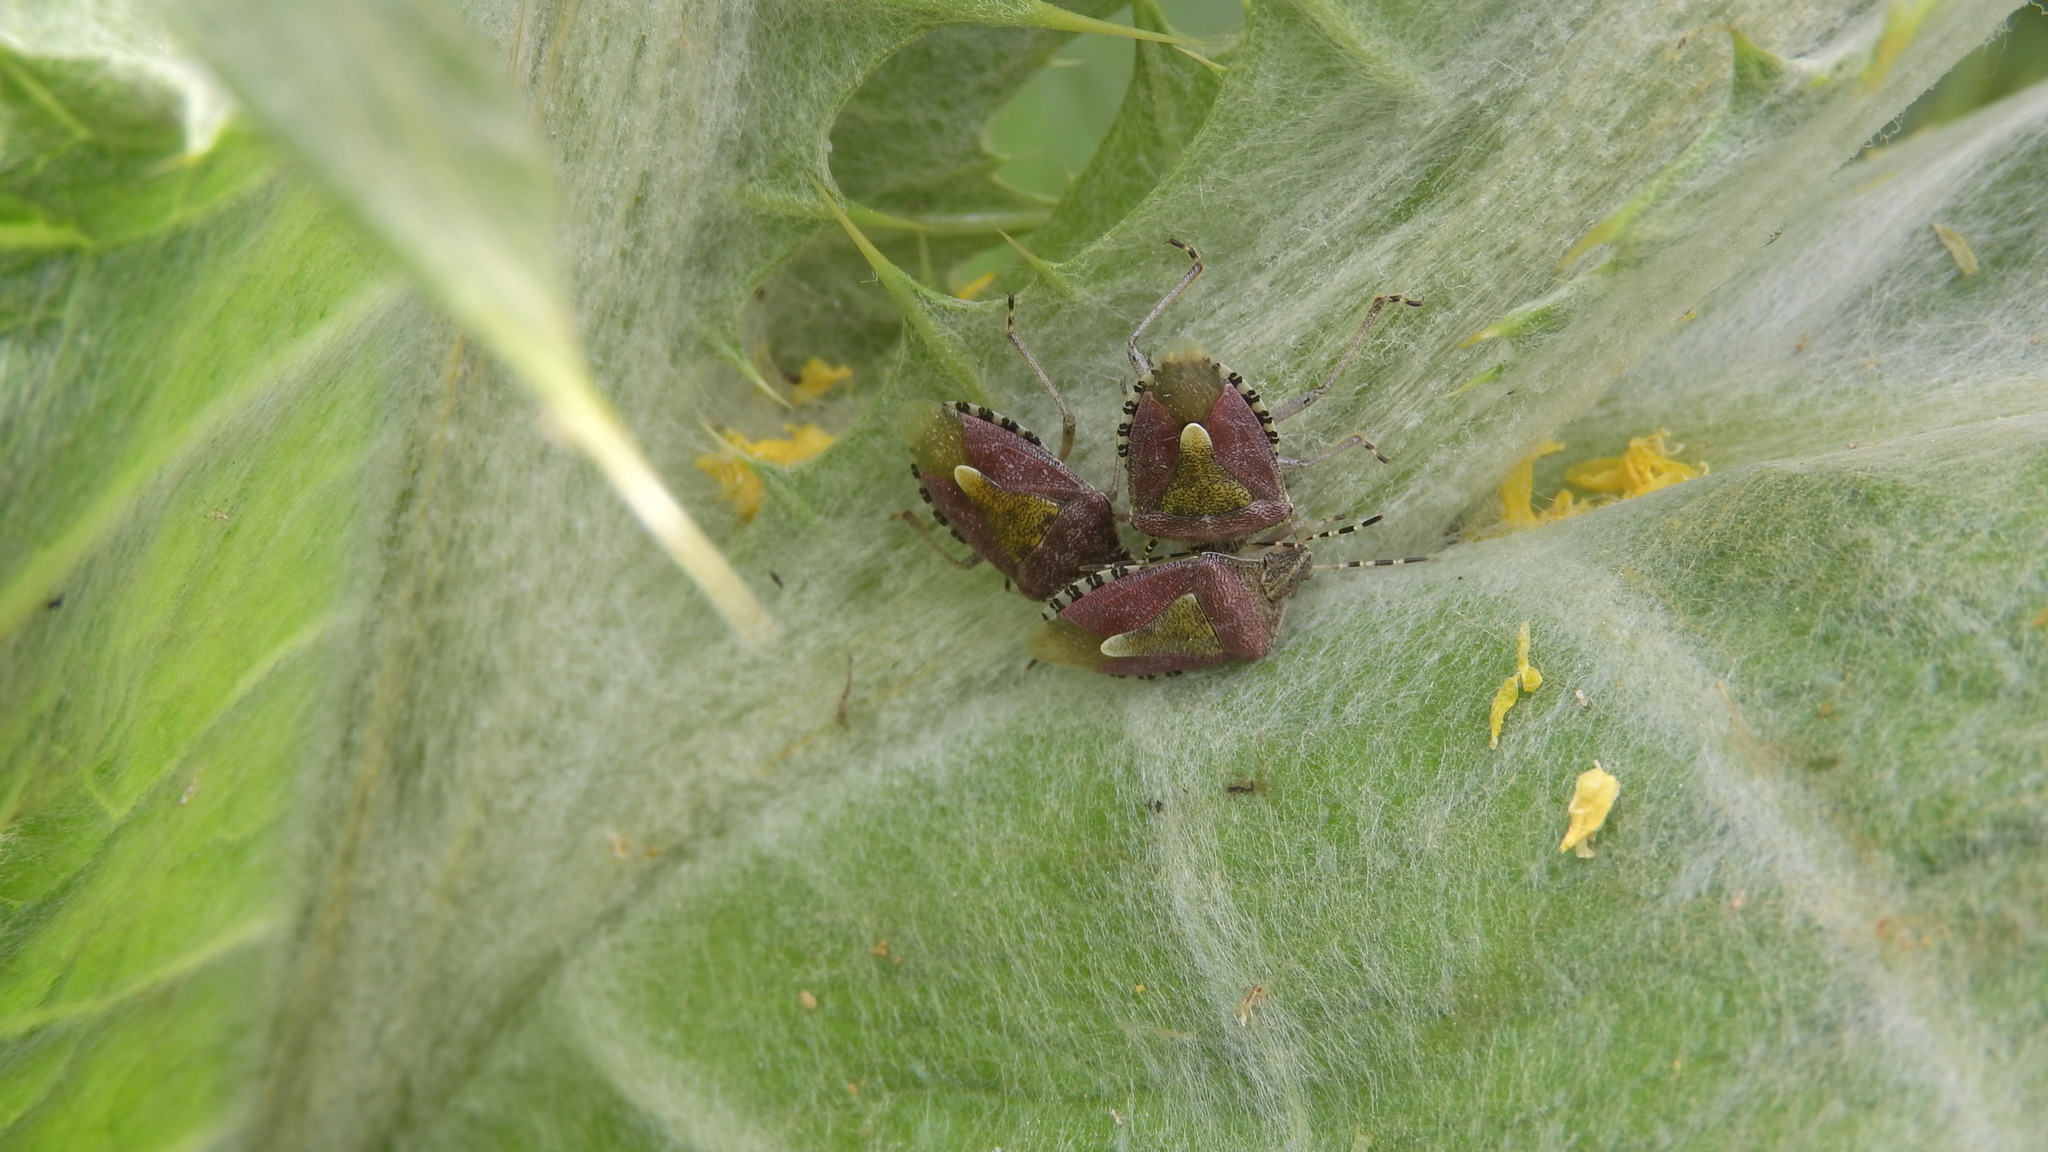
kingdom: Animalia
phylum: Arthropoda
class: Insecta
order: Hemiptera
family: Pentatomidae
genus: Dolycoris
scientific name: Dolycoris baccarum
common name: Sloe bug
